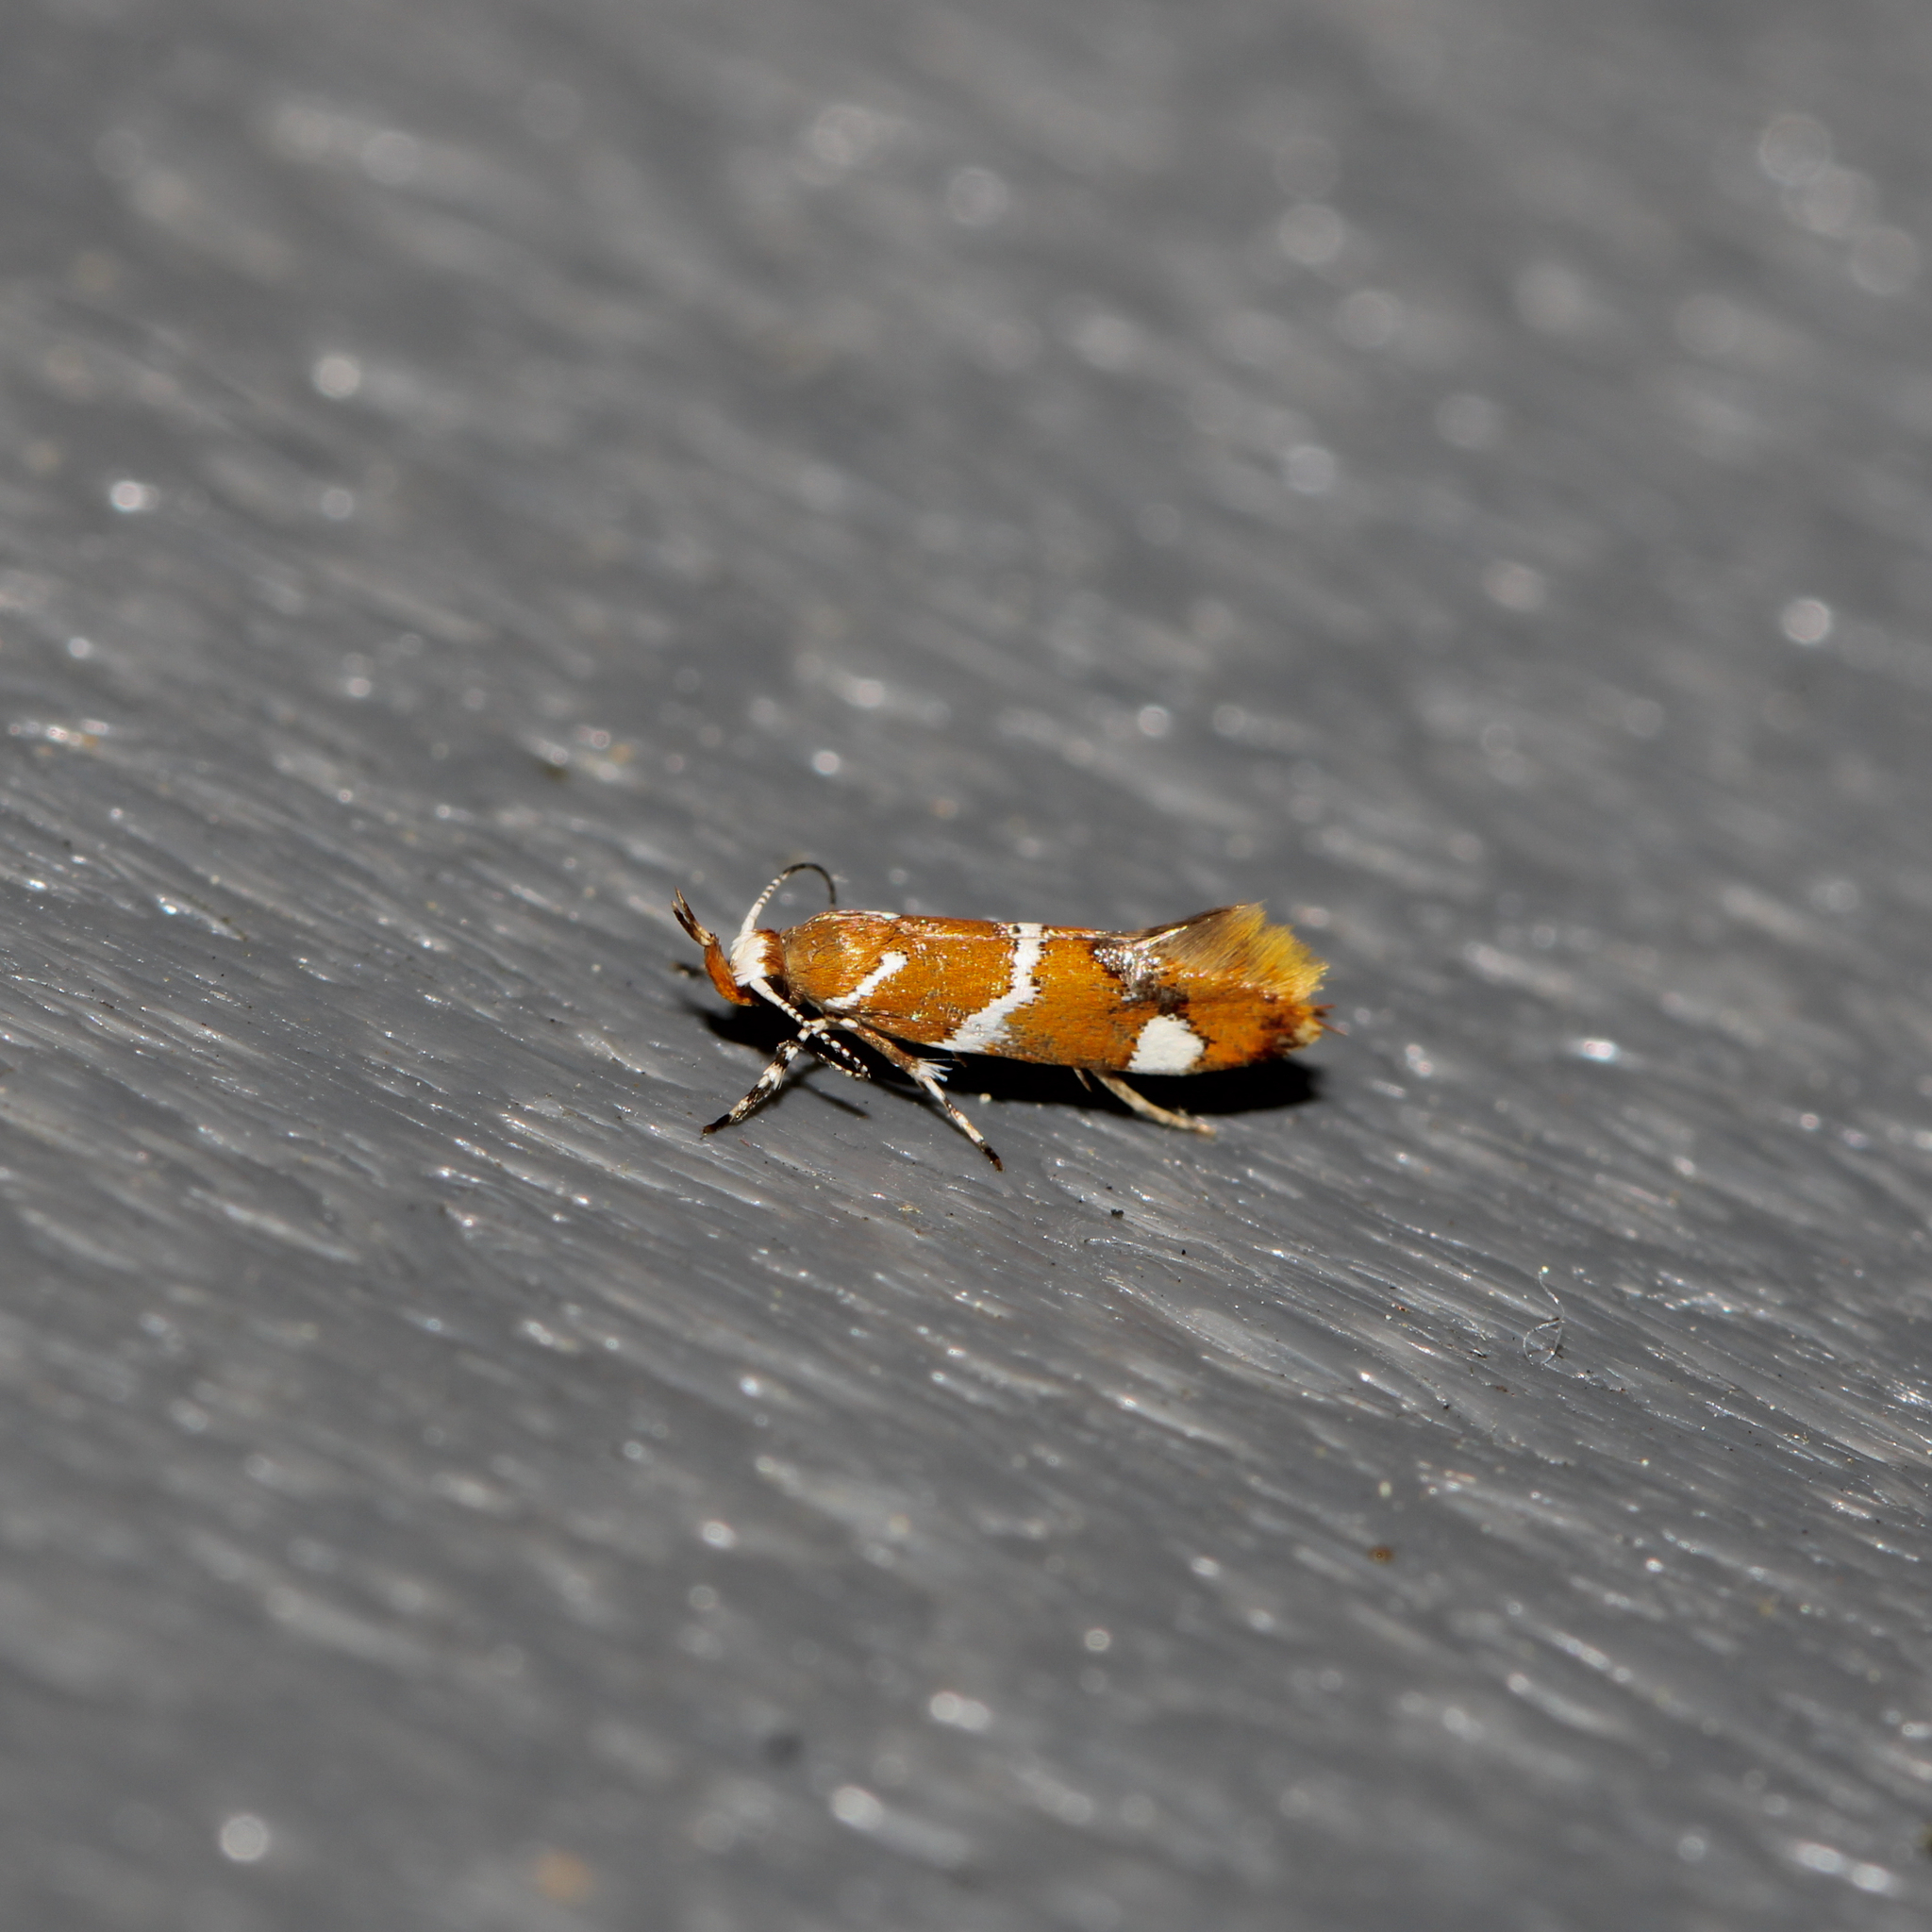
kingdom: Animalia
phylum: Arthropoda
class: Insecta
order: Lepidoptera
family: Oecophoridae
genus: Promalactis
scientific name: Promalactis suzukiella
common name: Moth
